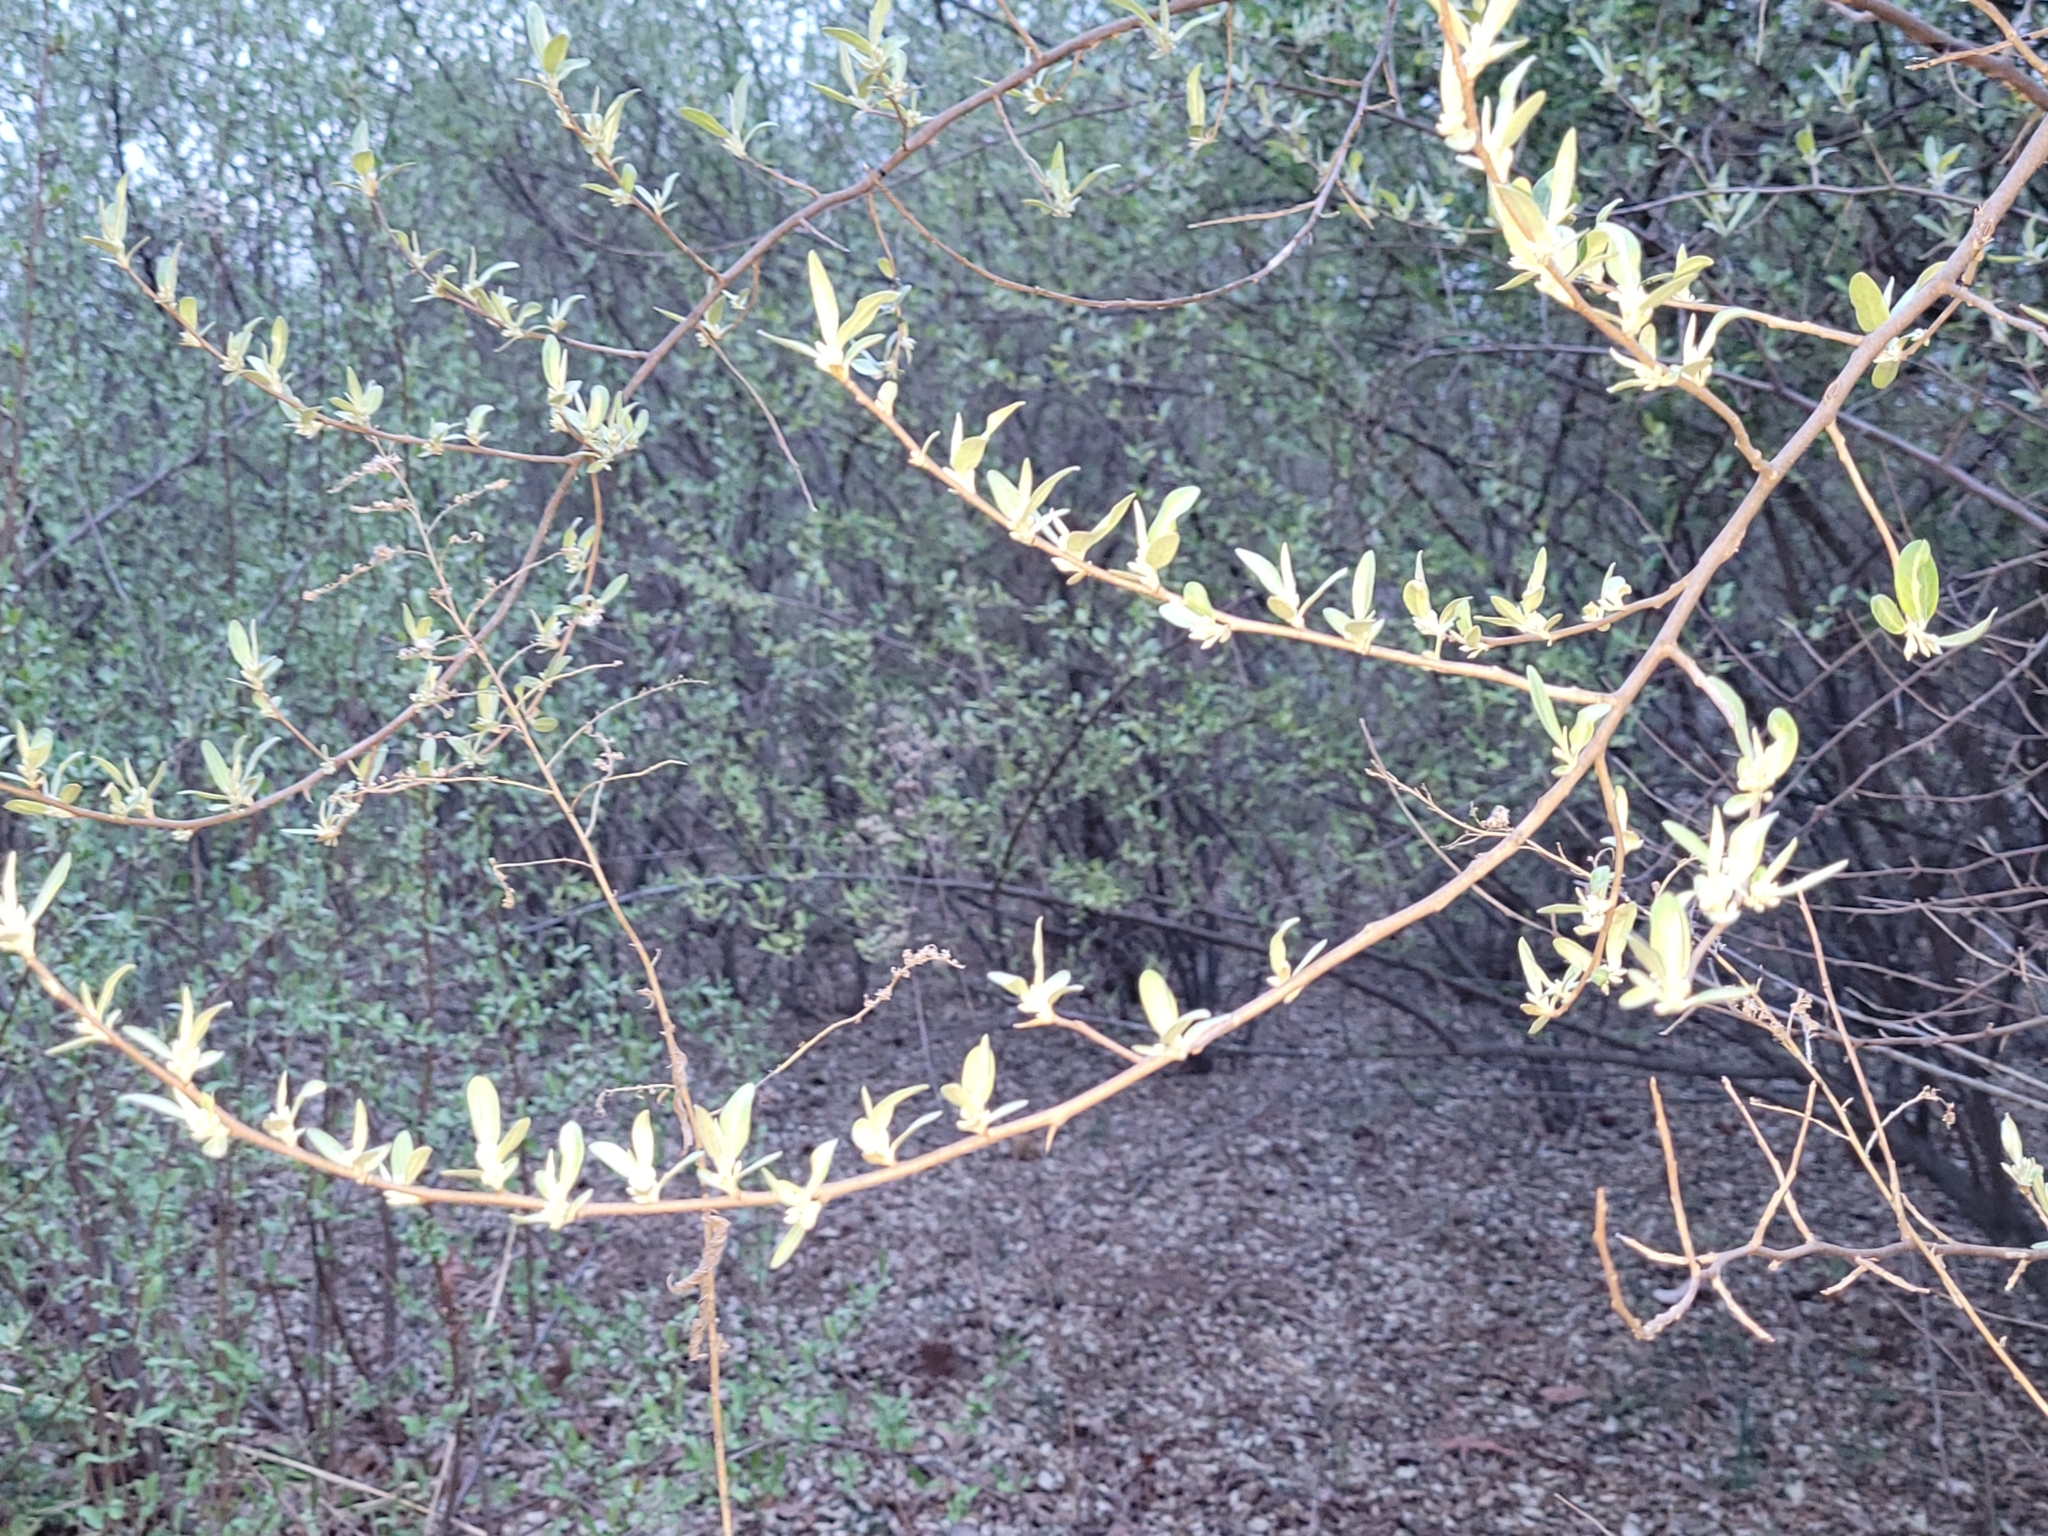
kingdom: Plantae
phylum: Tracheophyta
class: Magnoliopsida
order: Rosales
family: Elaeagnaceae
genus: Elaeagnus
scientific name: Elaeagnus umbellata
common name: Autumn olive
